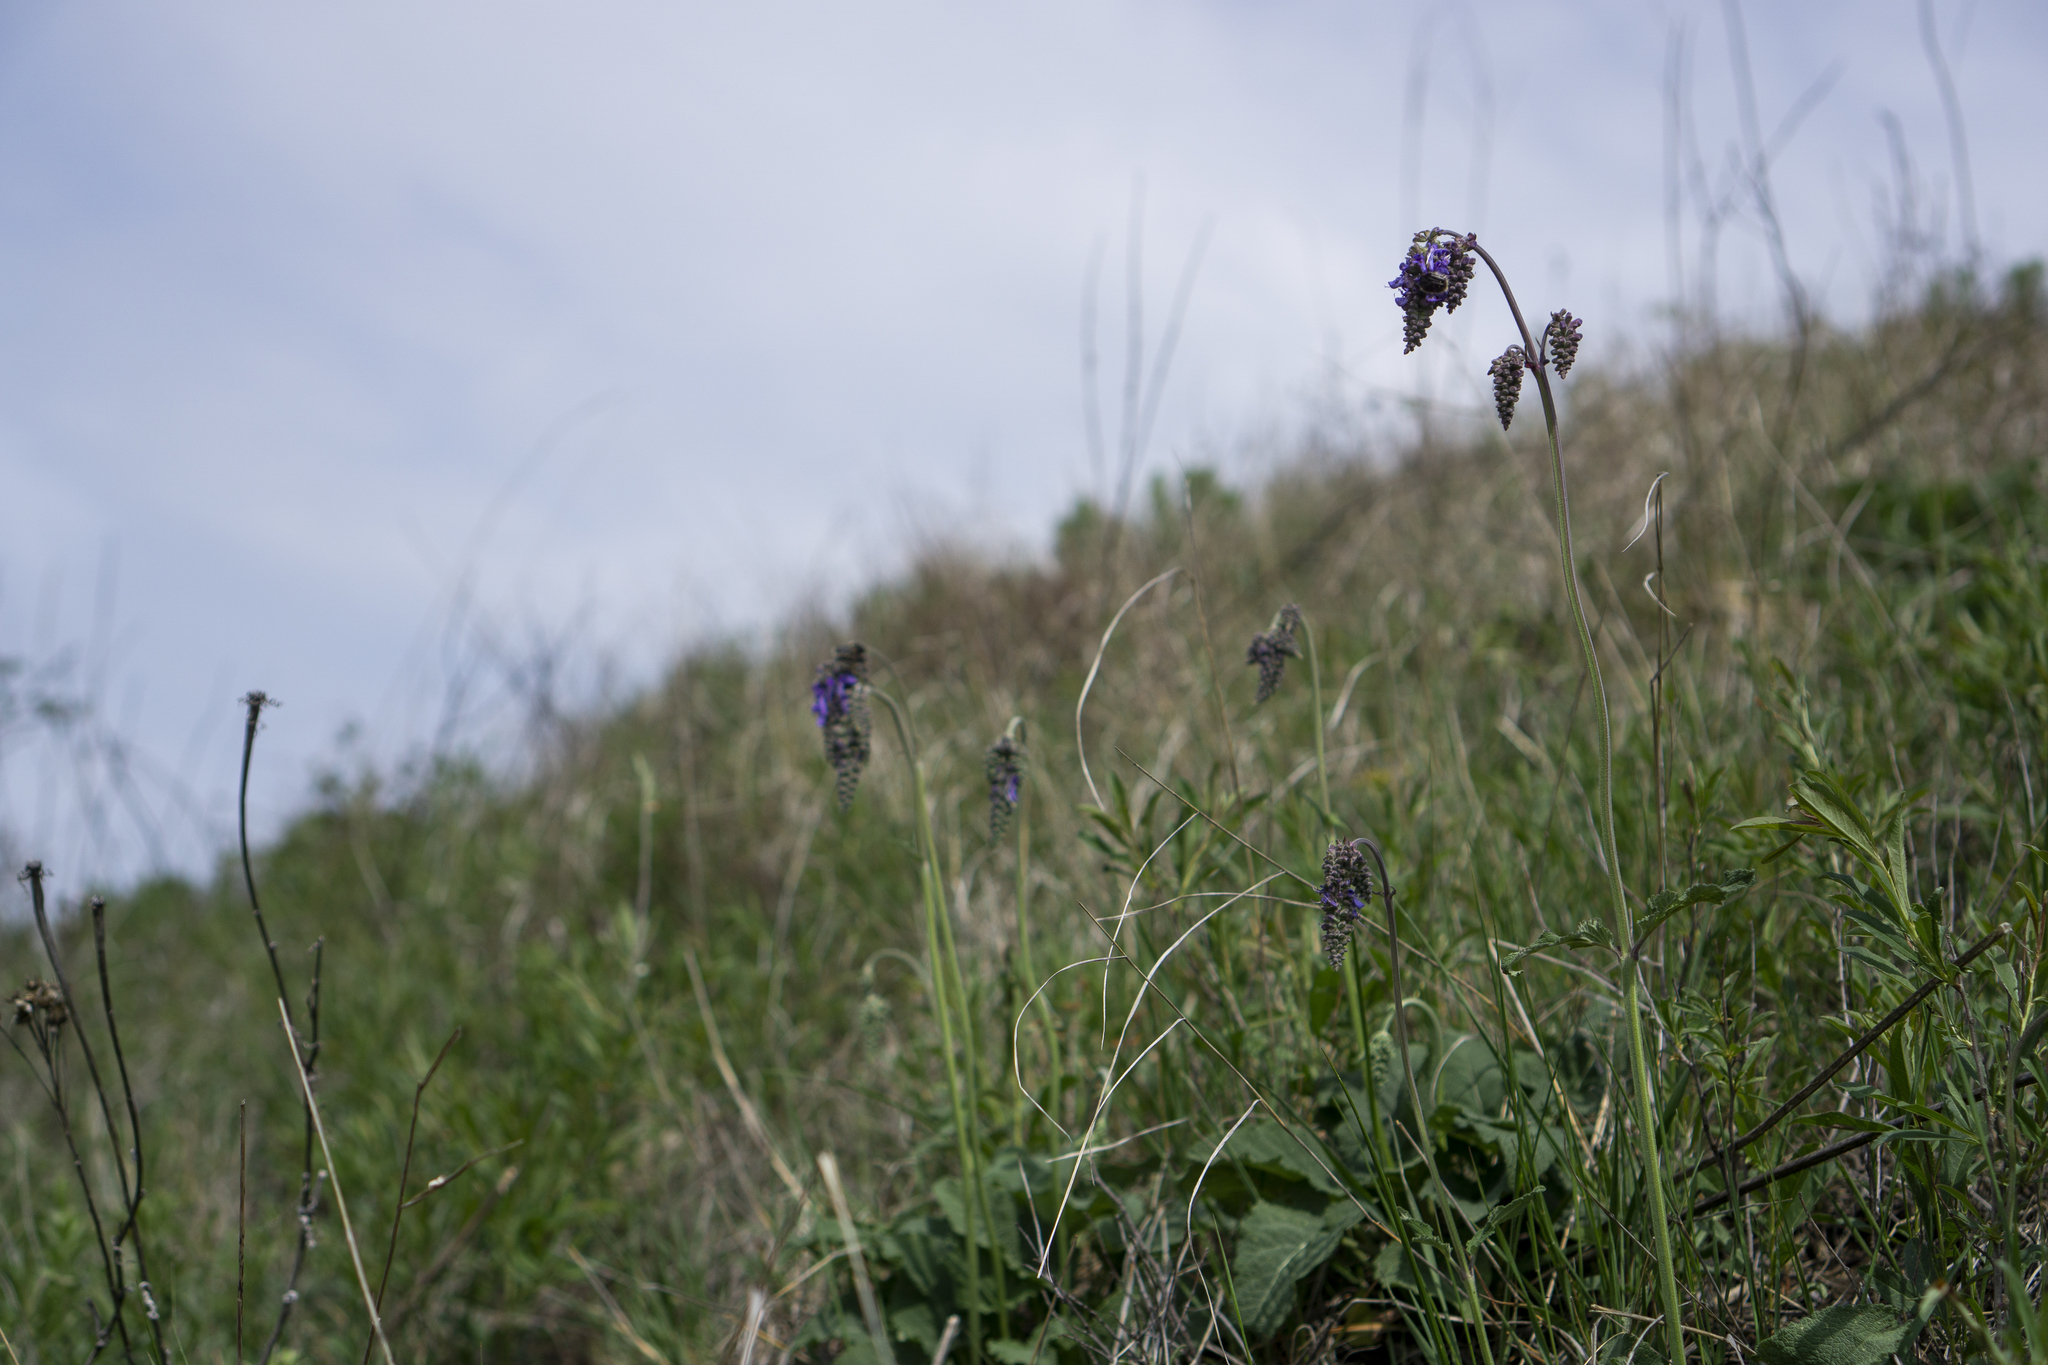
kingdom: Plantae
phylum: Tracheophyta
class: Magnoliopsida
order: Lamiales
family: Lamiaceae
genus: Salvia
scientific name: Salvia nutans
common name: Nodding sage
